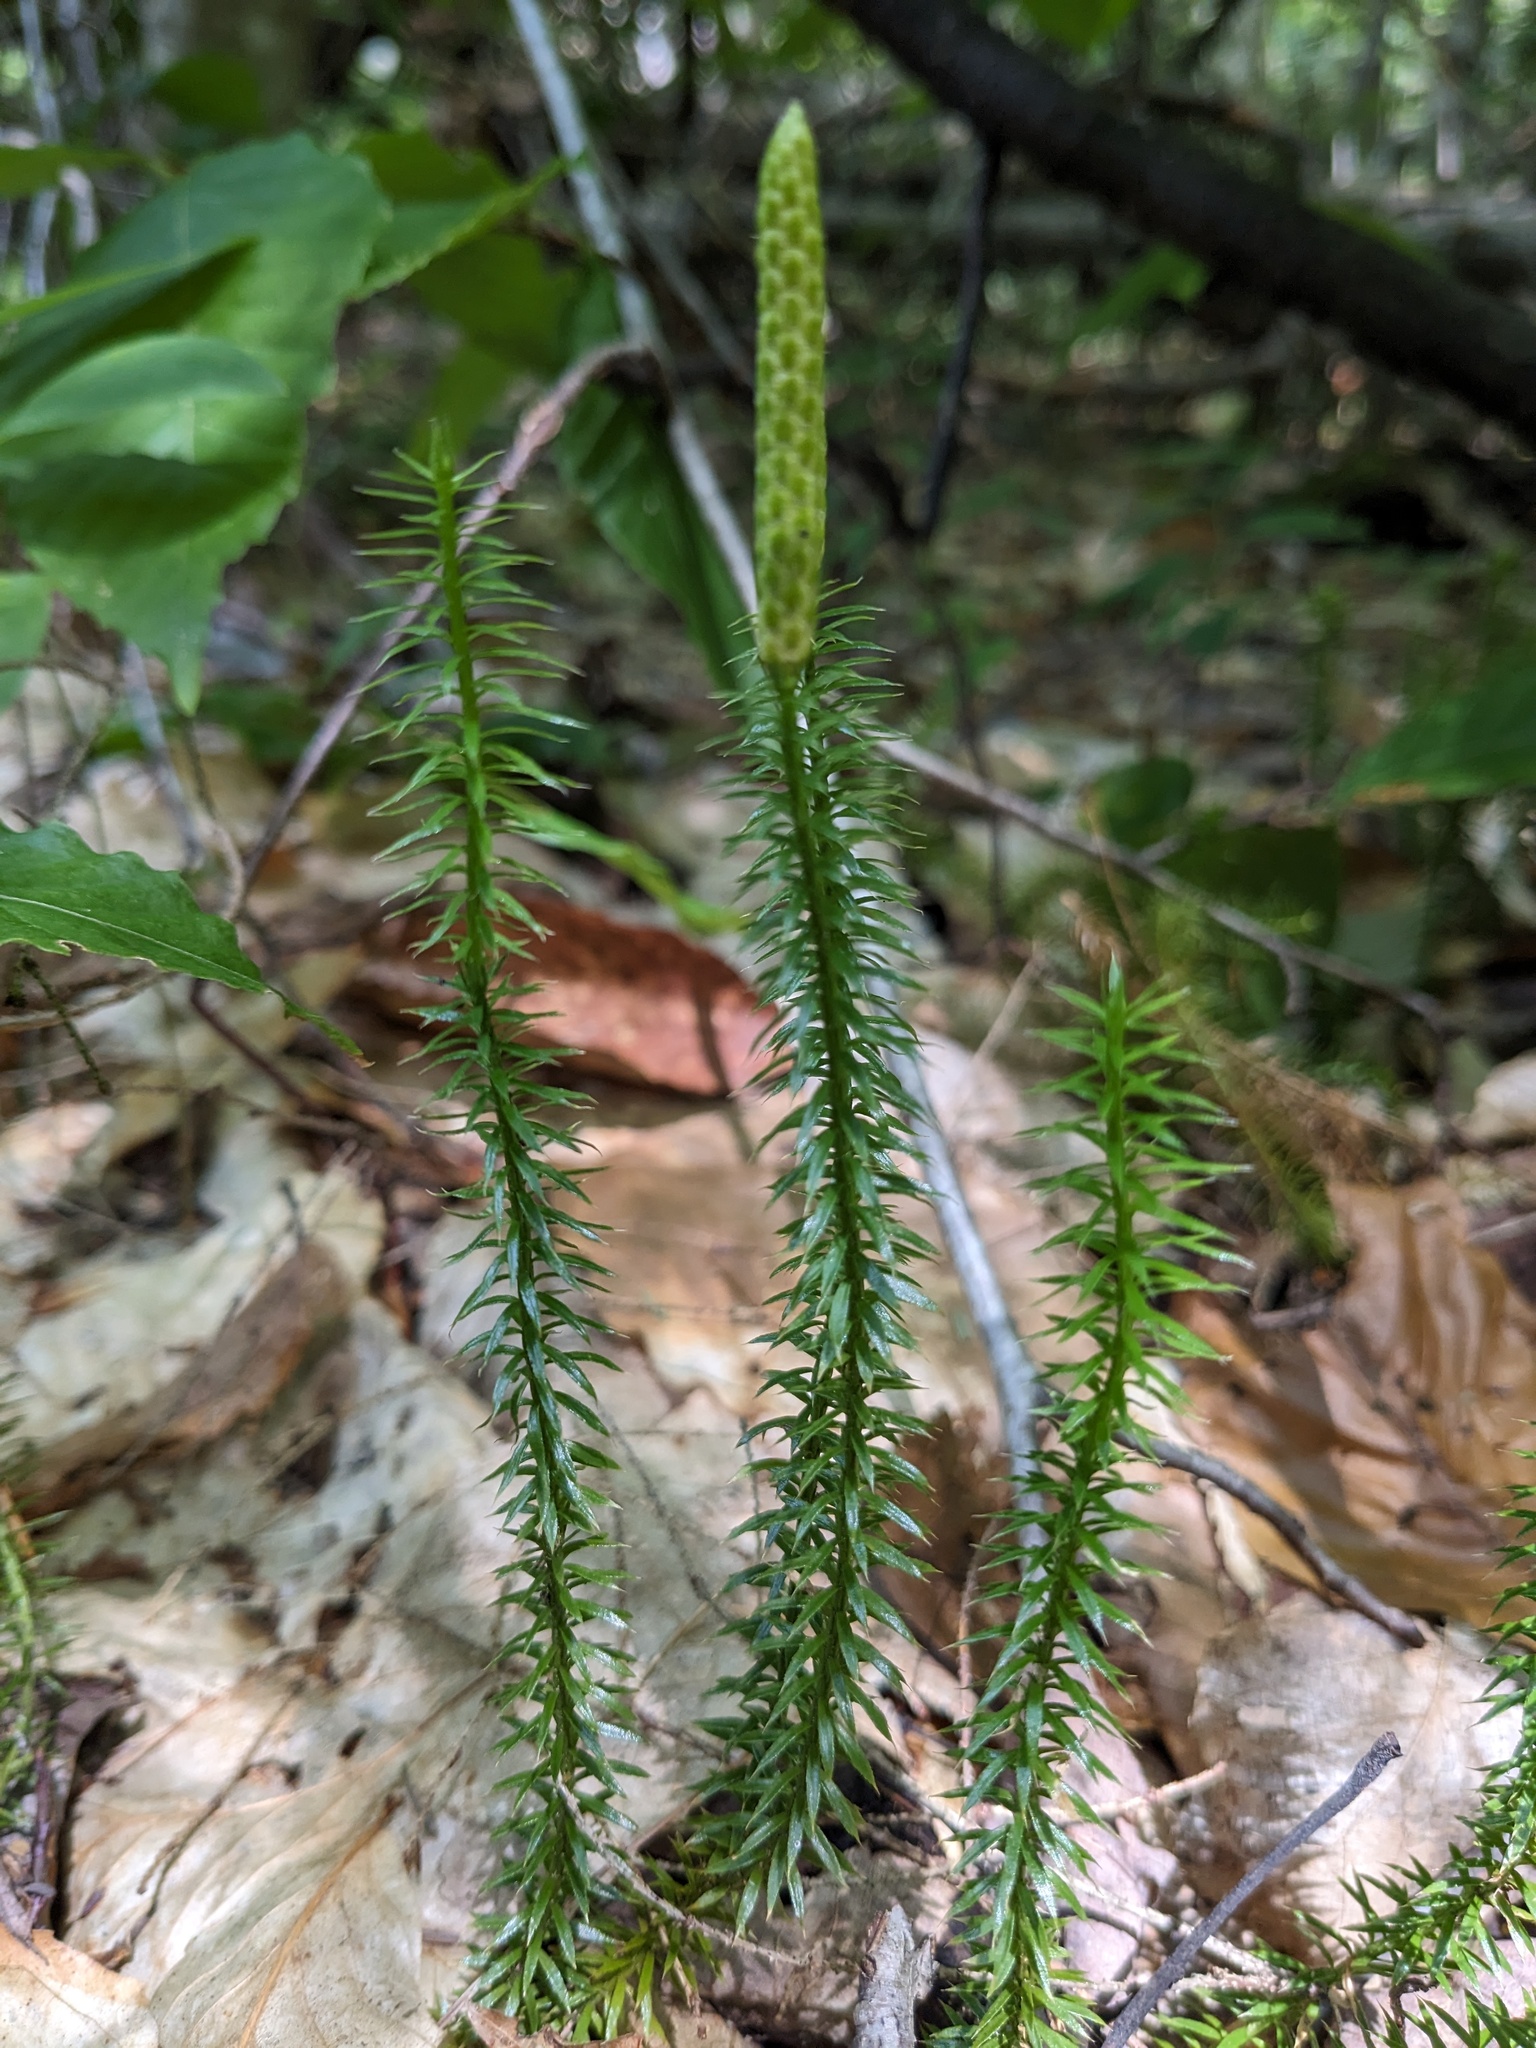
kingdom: Plantae
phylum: Tracheophyta
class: Lycopodiopsida
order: Lycopodiales
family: Lycopodiaceae
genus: Spinulum
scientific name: Spinulum annotinum
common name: Interrupted club-moss
